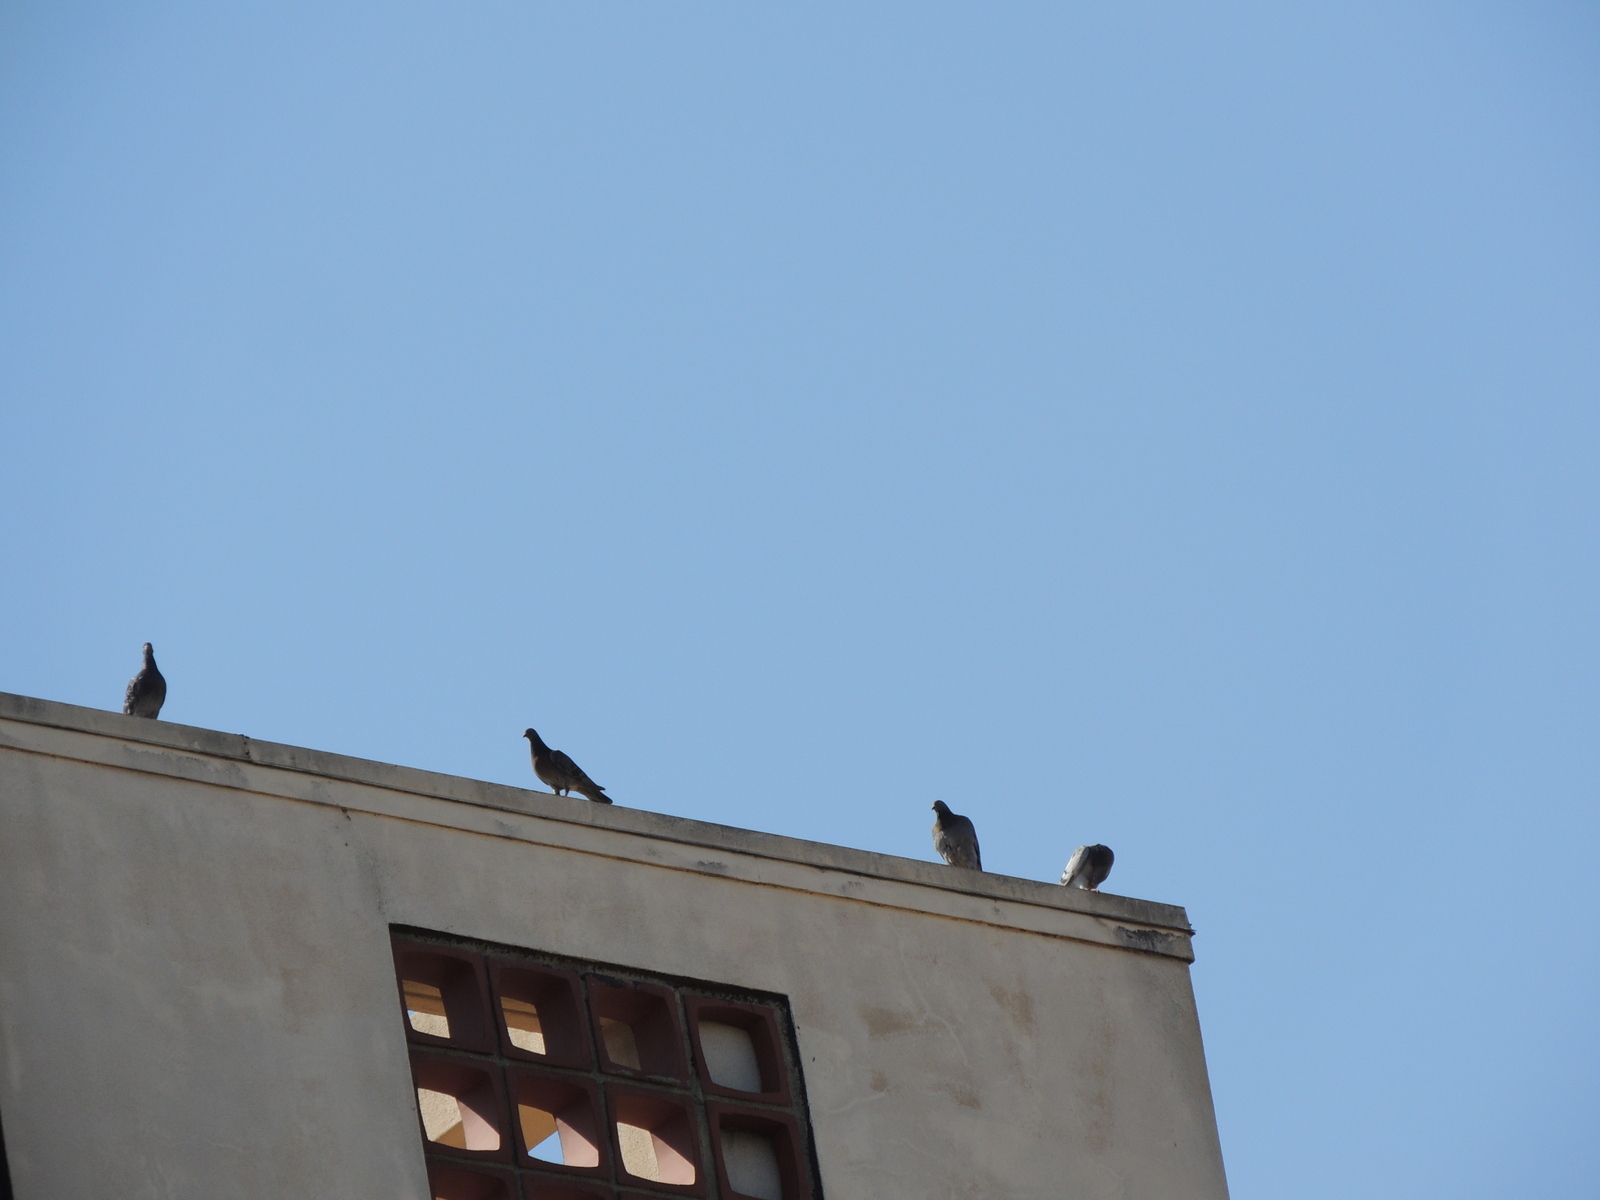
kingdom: Animalia
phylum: Chordata
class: Aves
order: Columbiformes
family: Columbidae
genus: Columba
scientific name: Columba livia
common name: Rock pigeon
